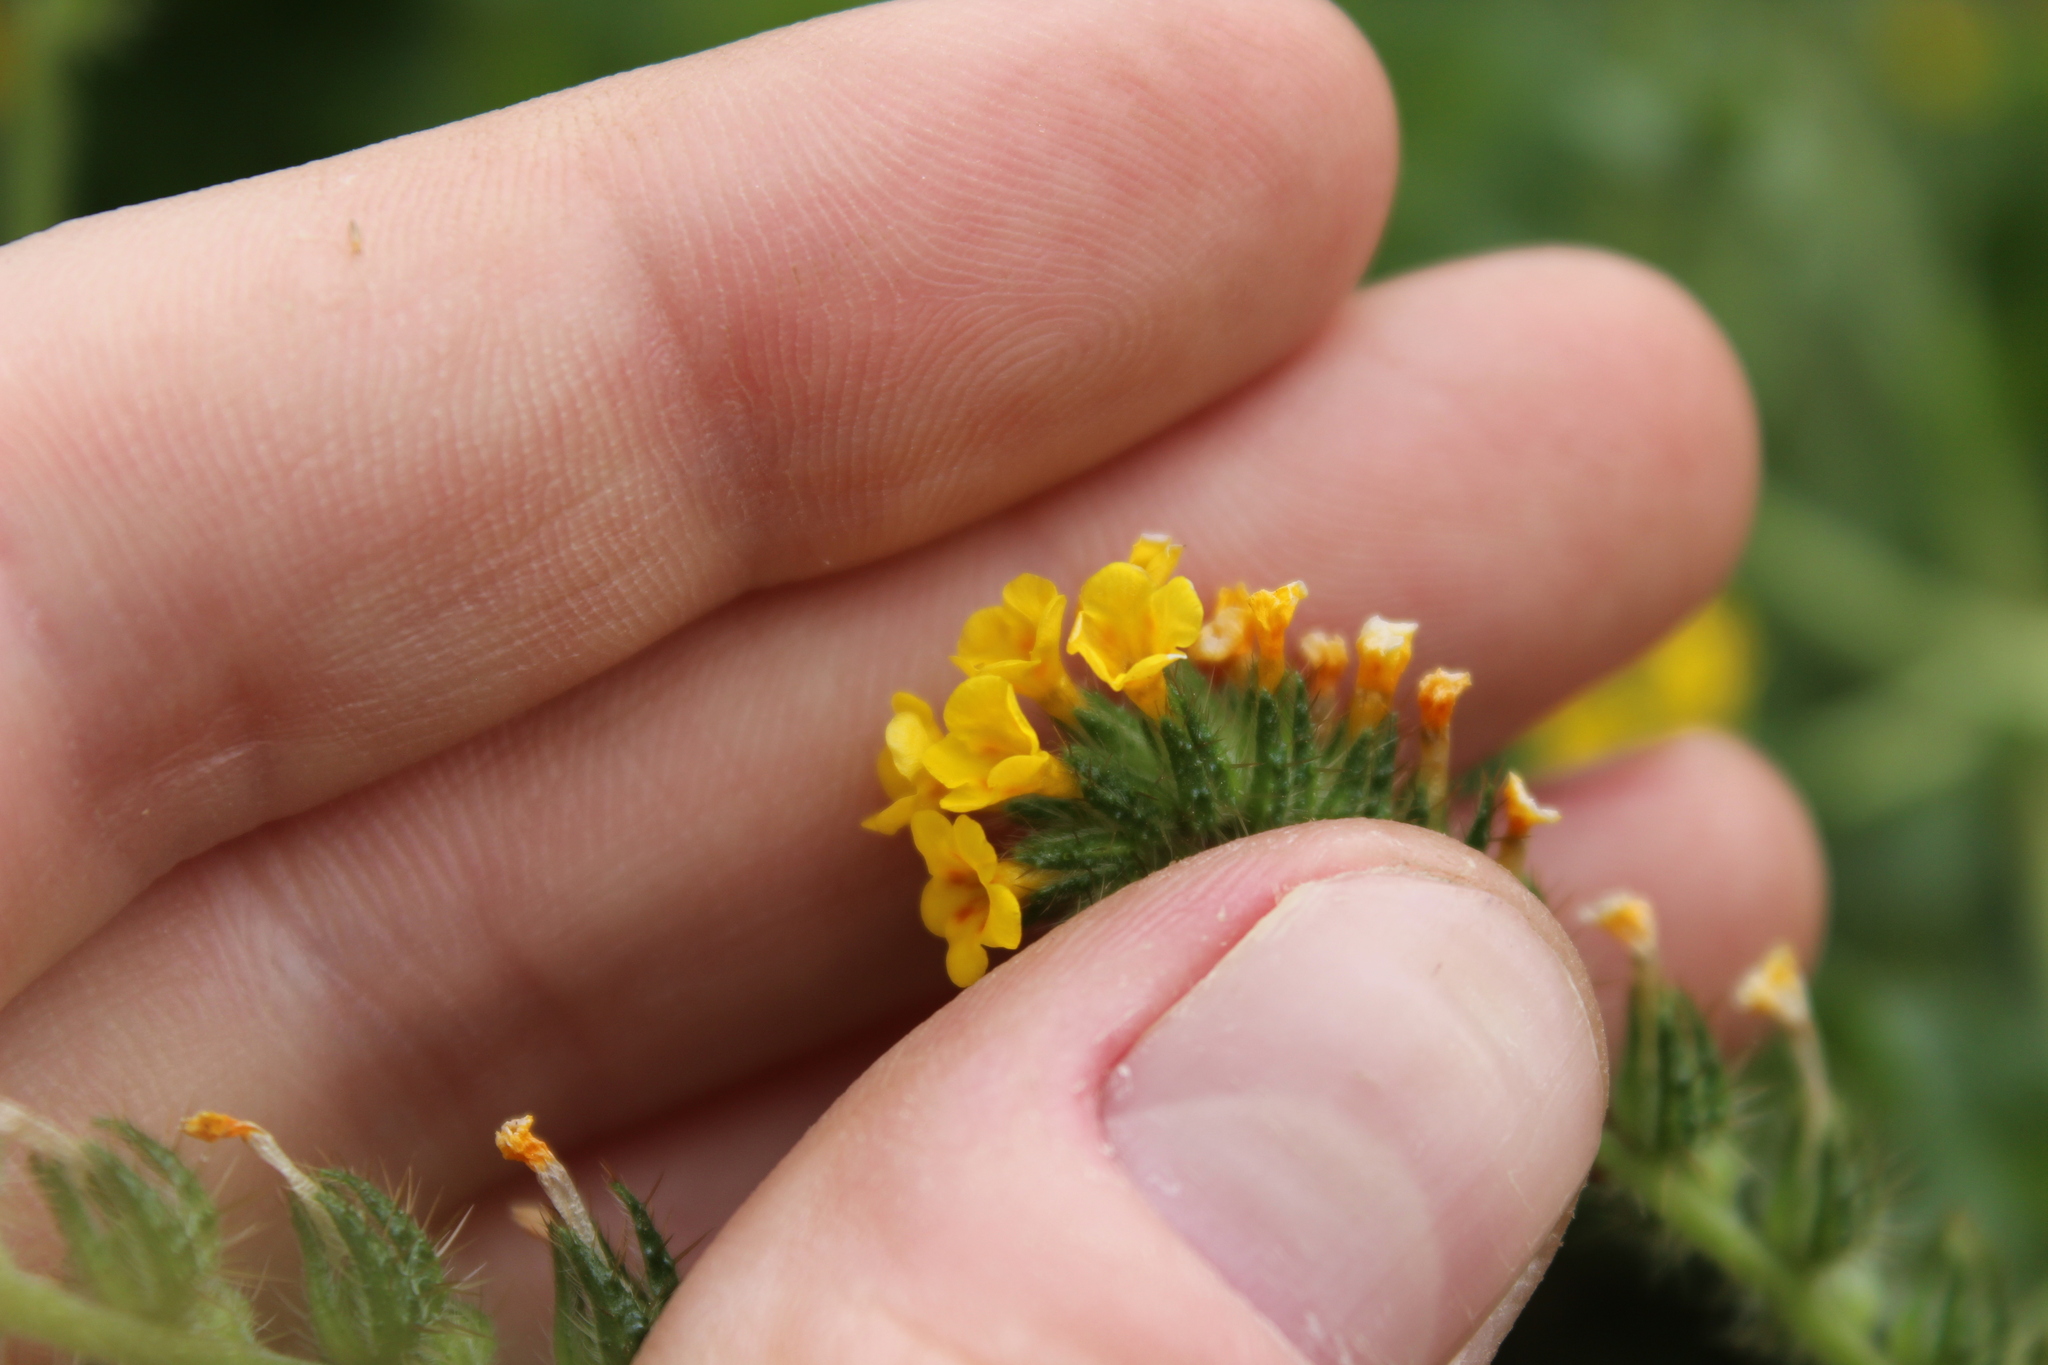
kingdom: Plantae
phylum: Tracheophyta
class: Magnoliopsida
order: Boraginales
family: Boraginaceae
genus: Amsinckia
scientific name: Amsinckia menziesii
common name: Menzies' fiddleneck
